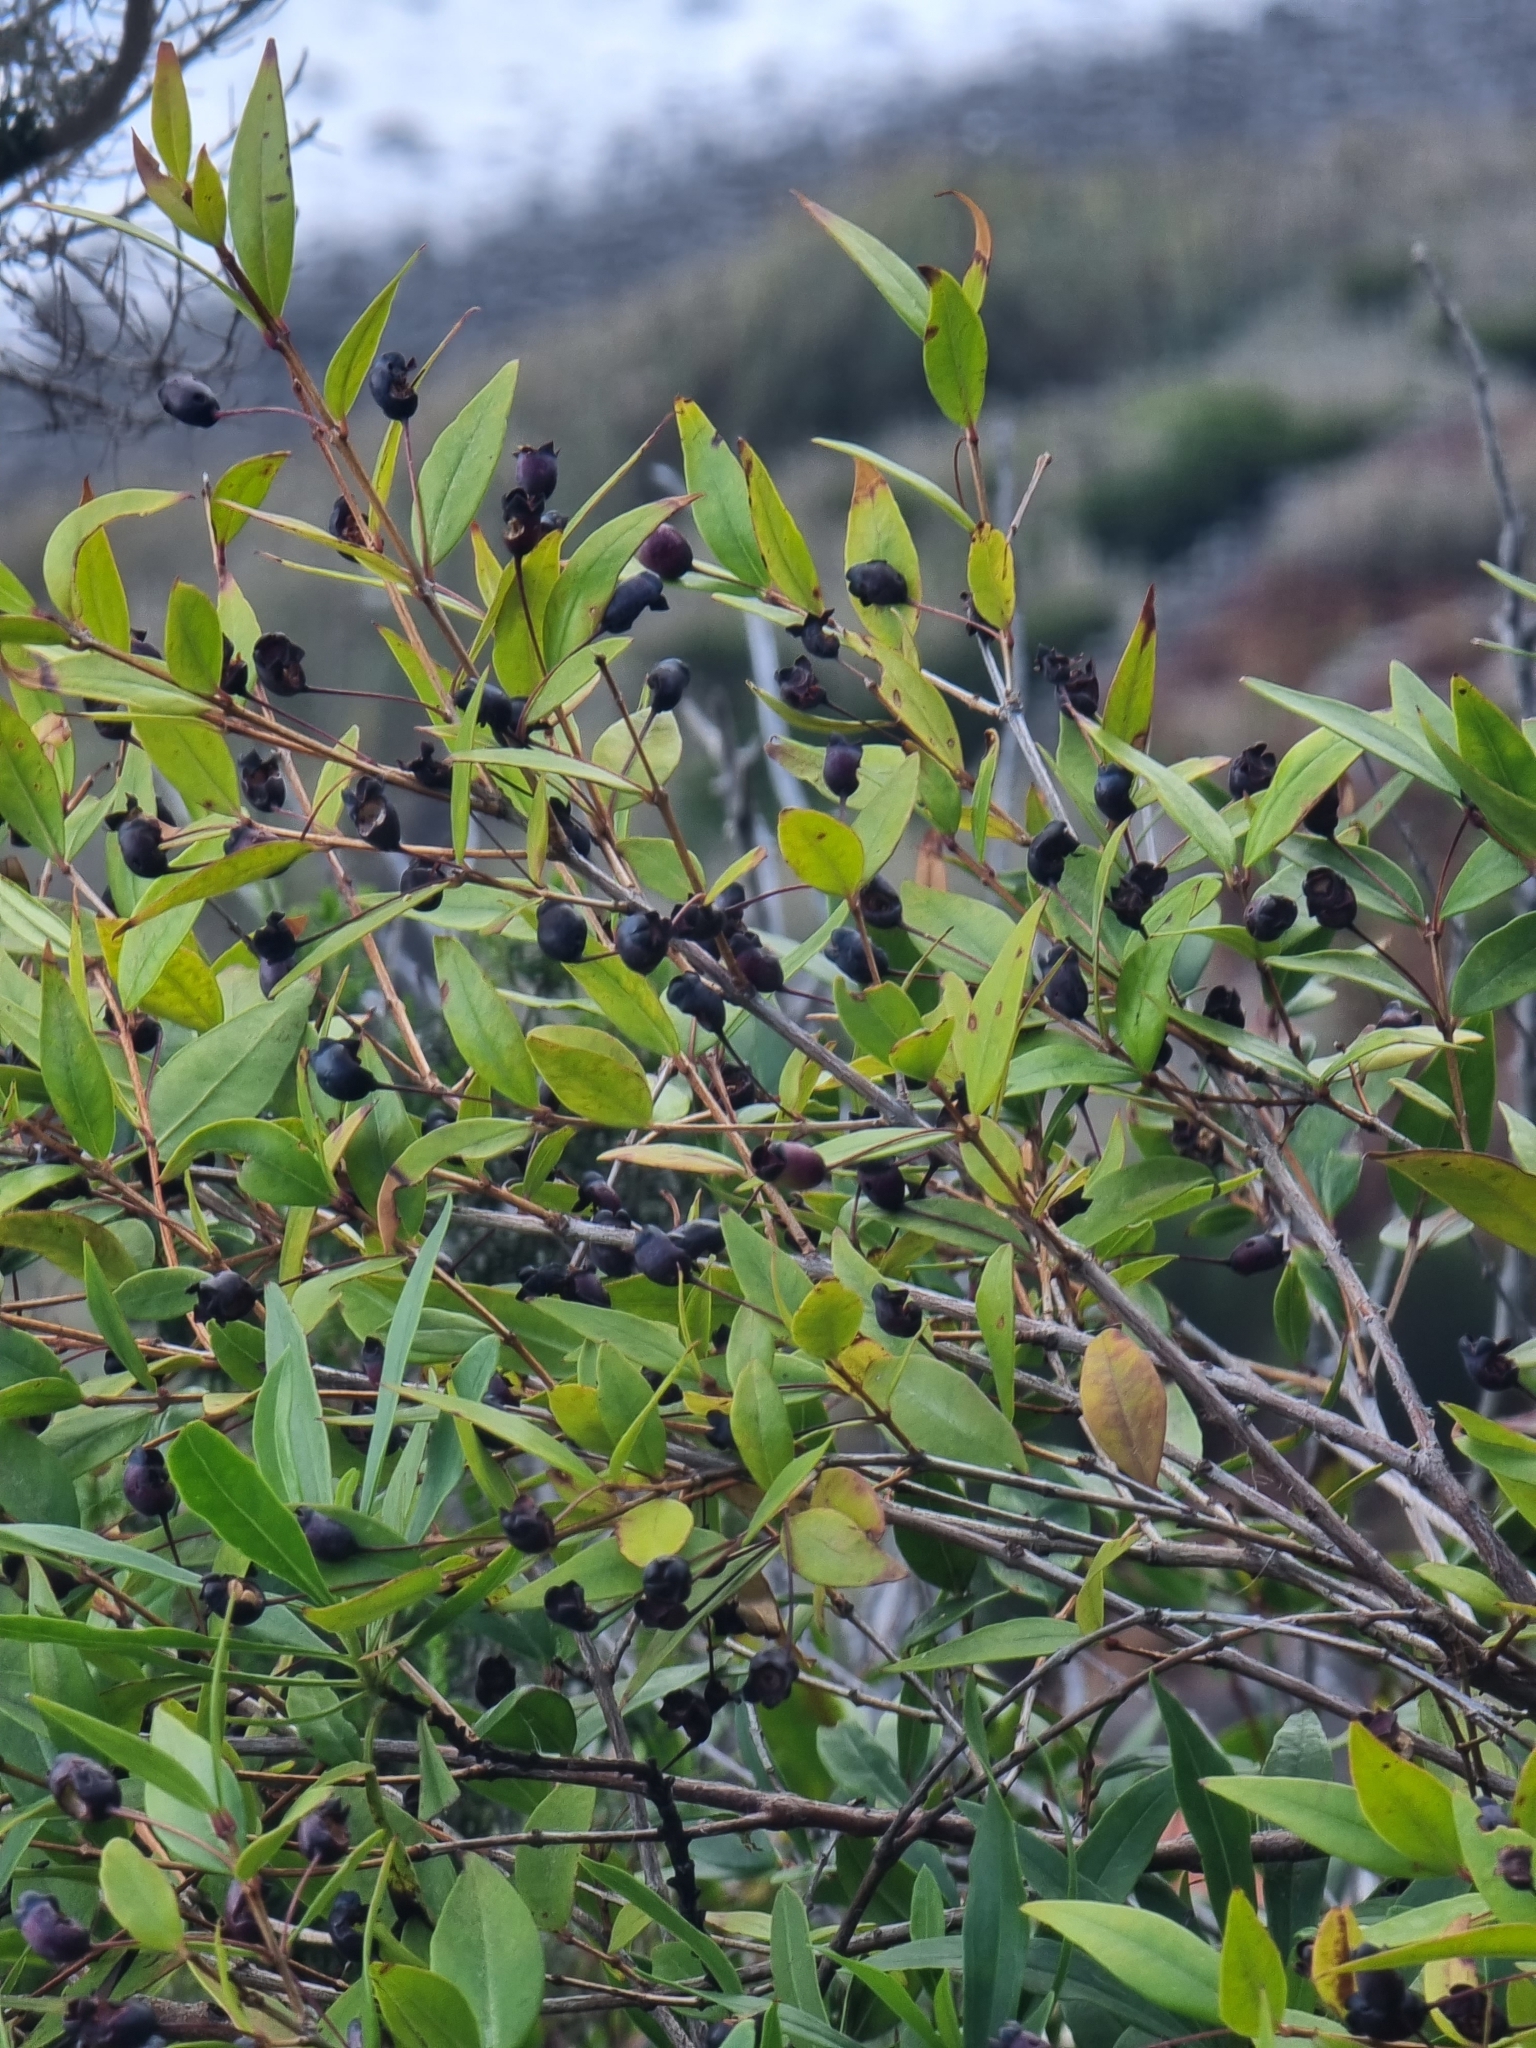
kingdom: Plantae
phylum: Tracheophyta
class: Magnoliopsida
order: Myrtales
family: Myrtaceae
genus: Myrtus
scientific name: Myrtus communis
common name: Myrtle
